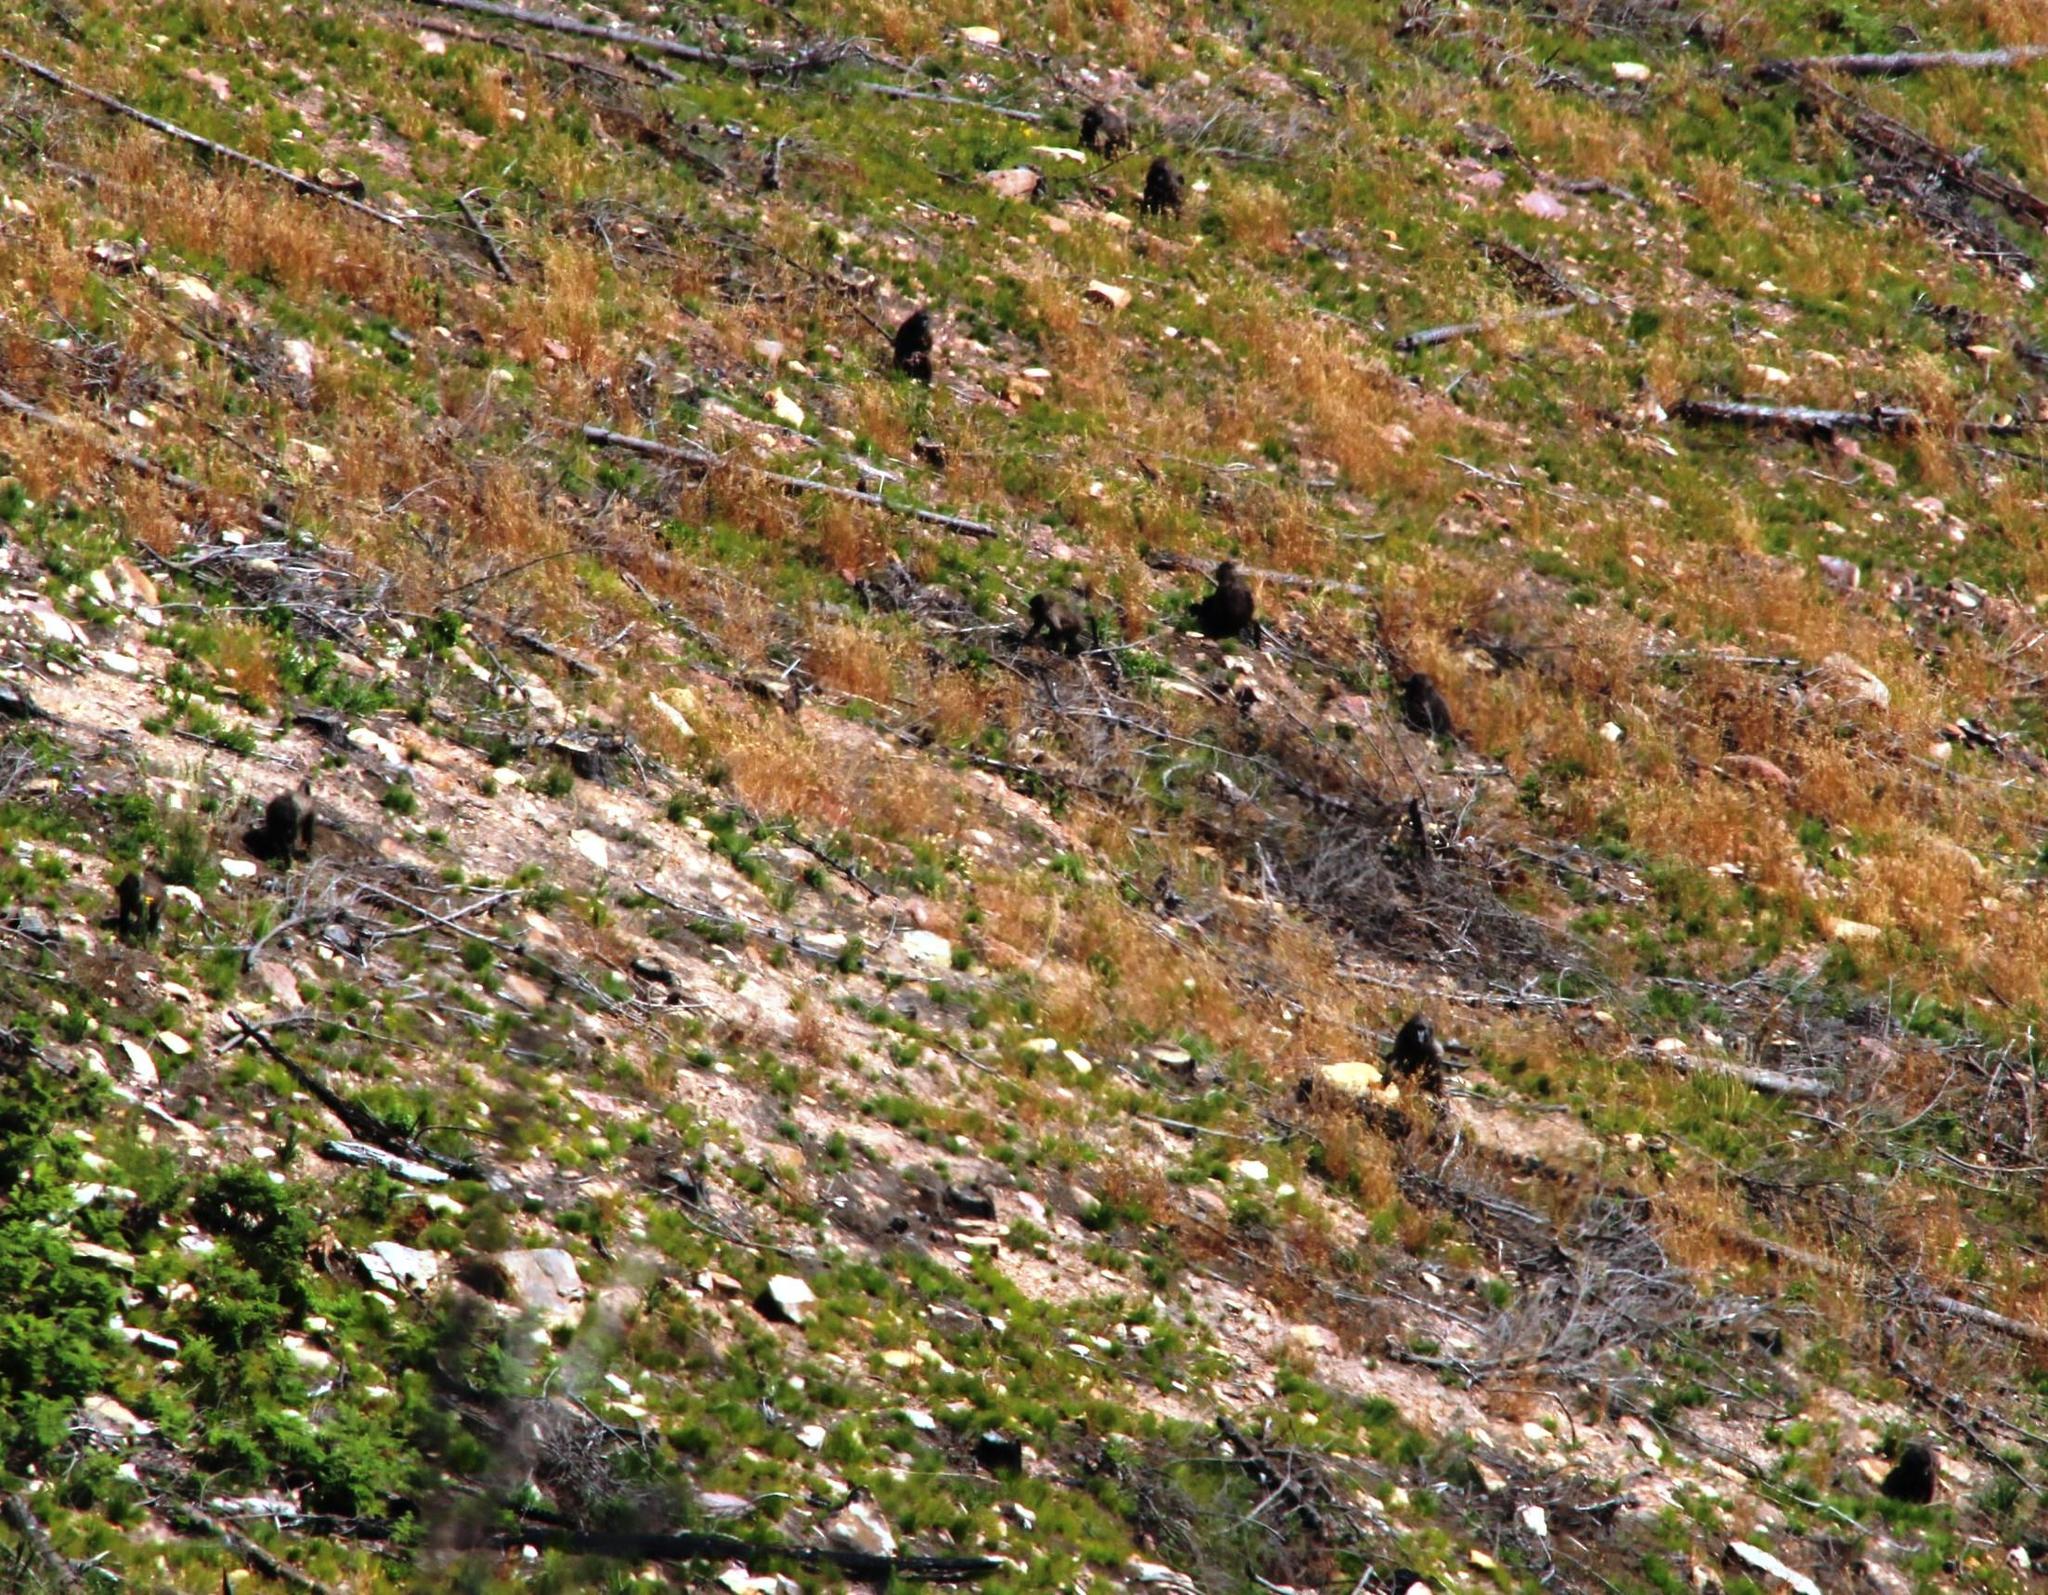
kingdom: Animalia
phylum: Chordata
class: Mammalia
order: Primates
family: Cercopithecidae
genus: Papio
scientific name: Papio ursinus
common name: Chacma baboon
